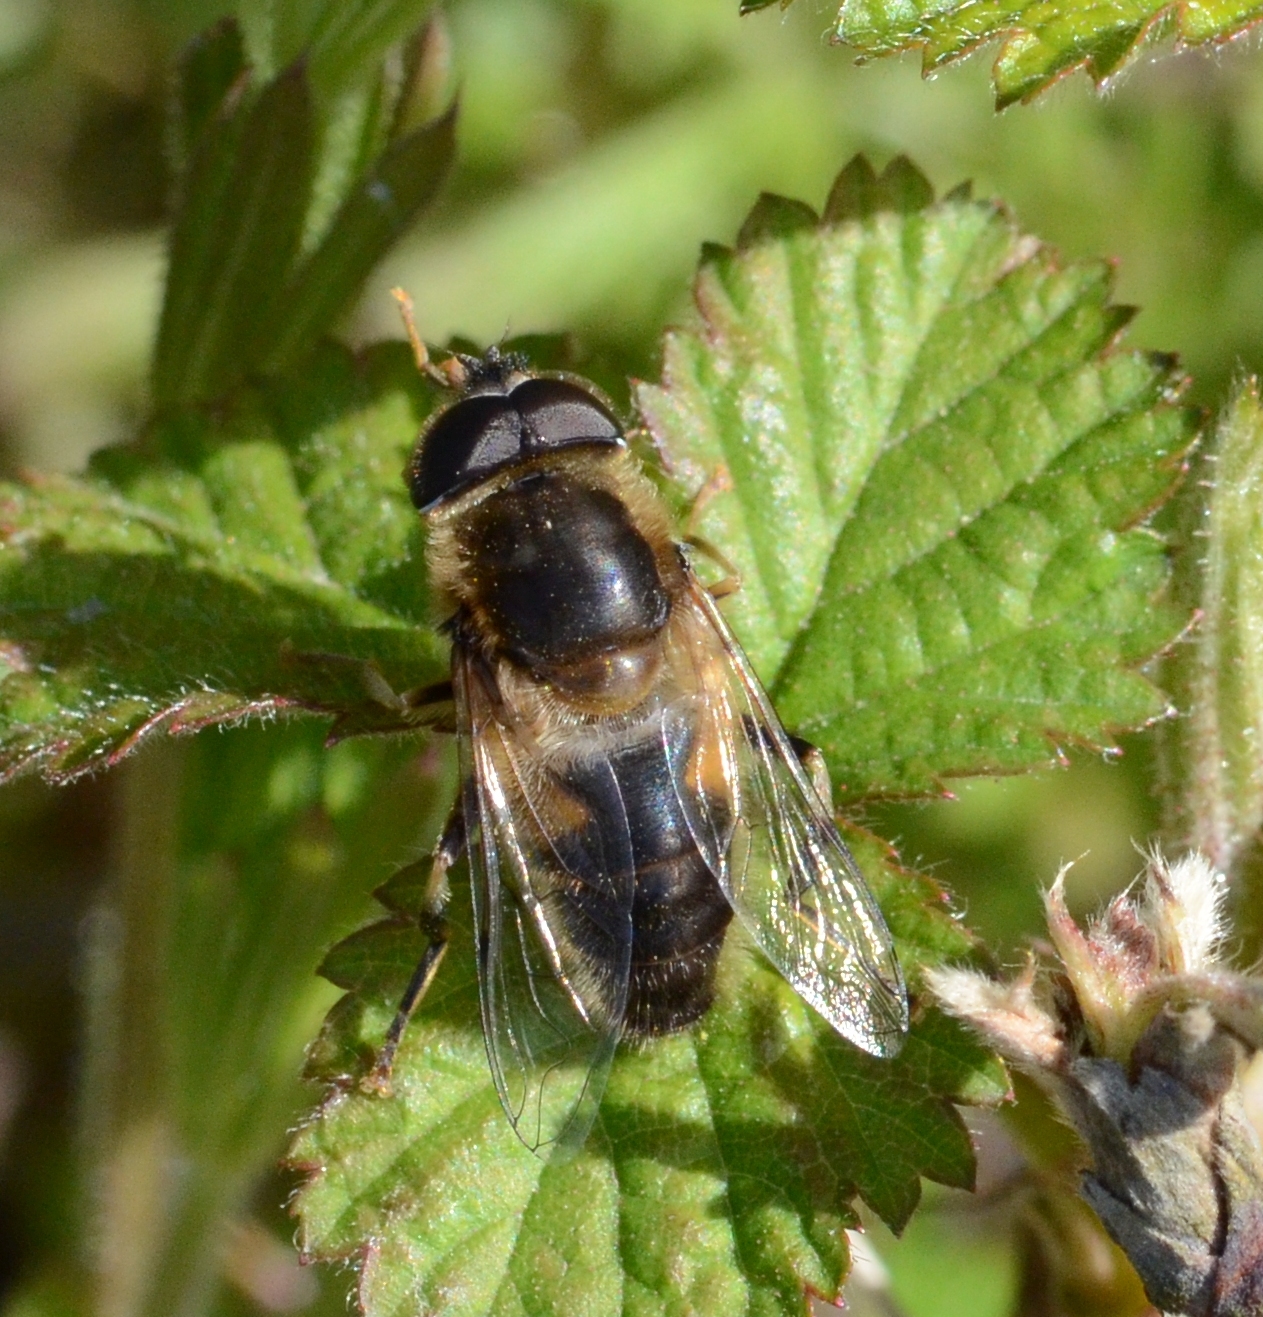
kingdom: Animalia
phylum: Arthropoda
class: Insecta
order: Diptera
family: Syrphidae
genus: Eristalis
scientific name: Eristalis pertinax
